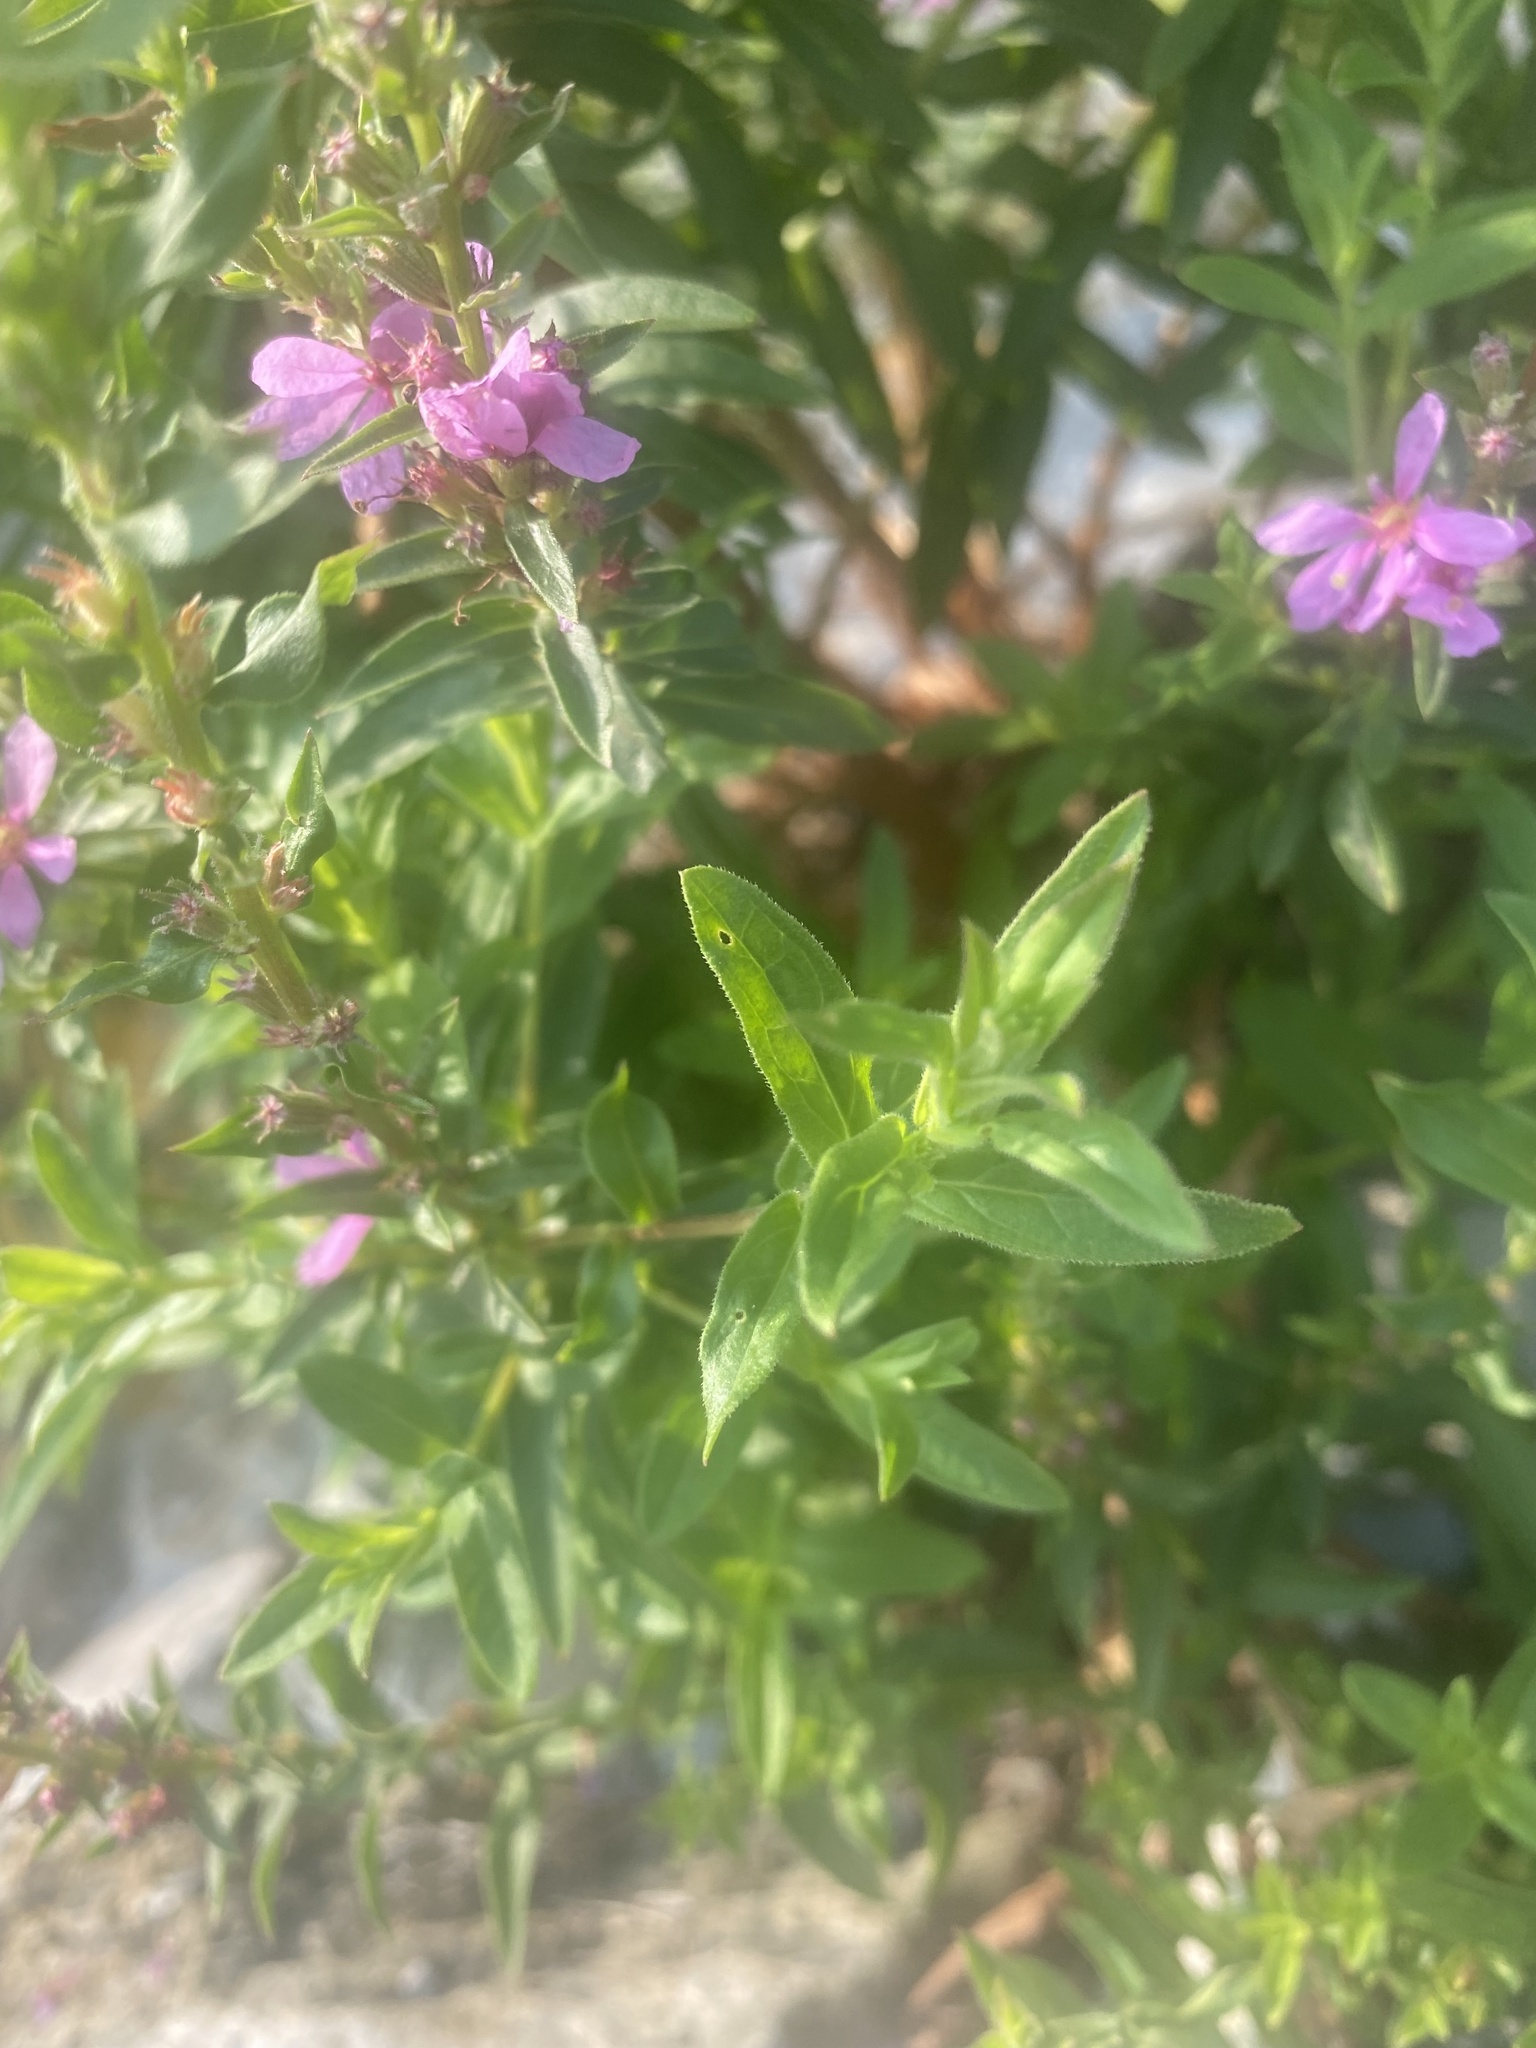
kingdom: Plantae
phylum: Tracheophyta
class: Magnoliopsida
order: Myrtales
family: Lythraceae
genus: Lythrum
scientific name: Lythrum salicaria
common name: Purple loosestrife
